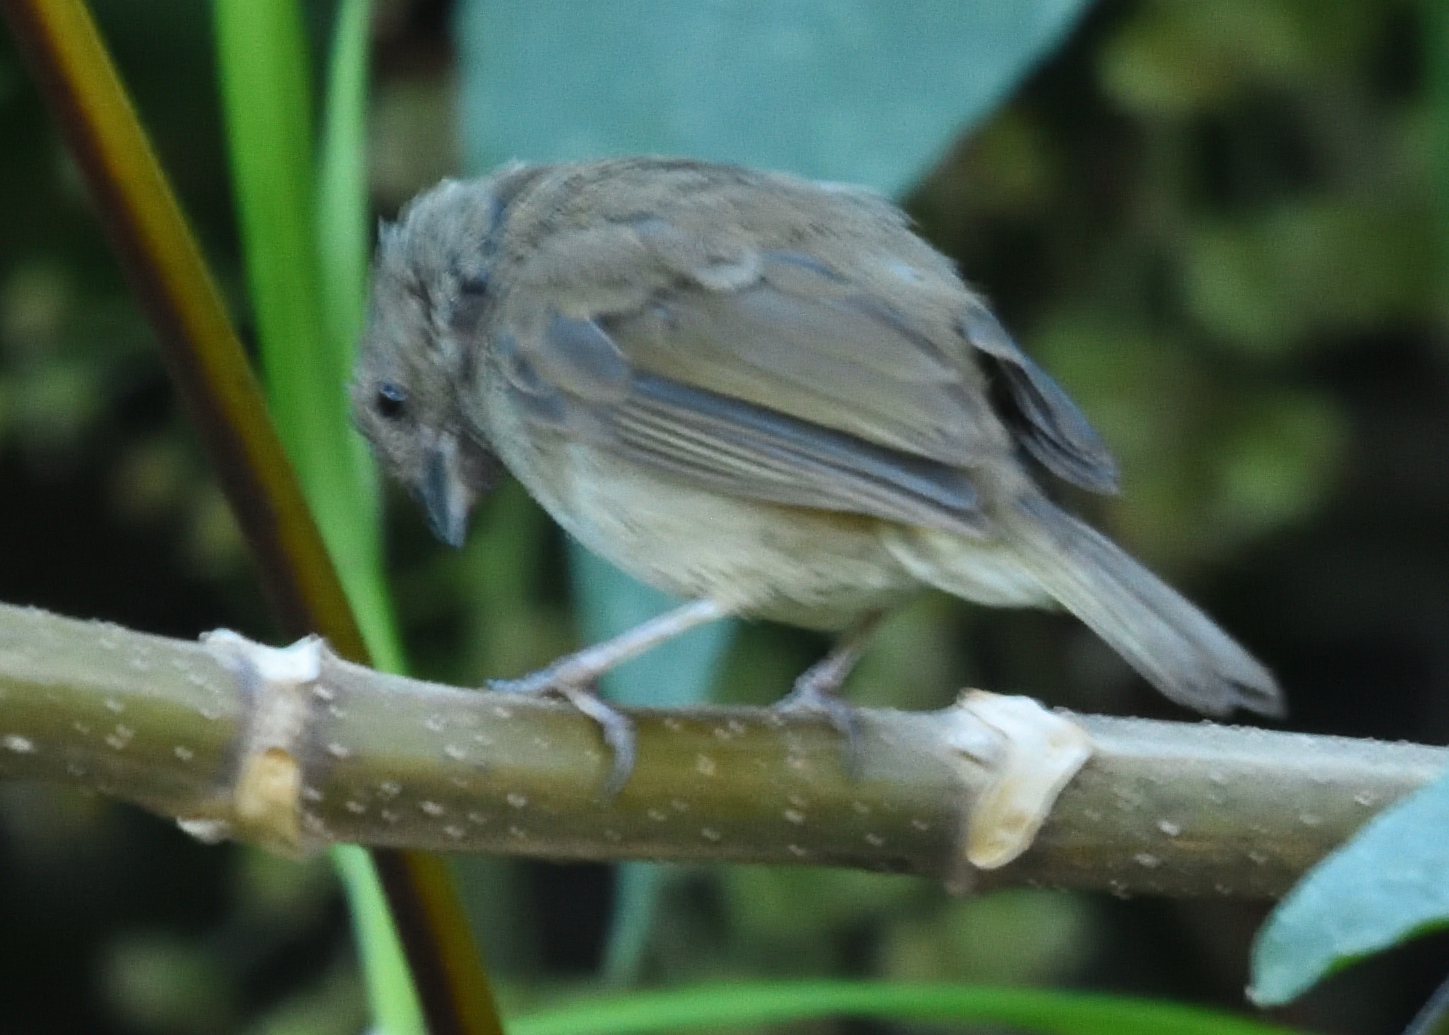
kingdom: Animalia
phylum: Chordata
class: Aves
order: Passeriformes
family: Thraupidae
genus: Asemospiza
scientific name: Asemospiza obscura
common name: Dull-colored grassquit
